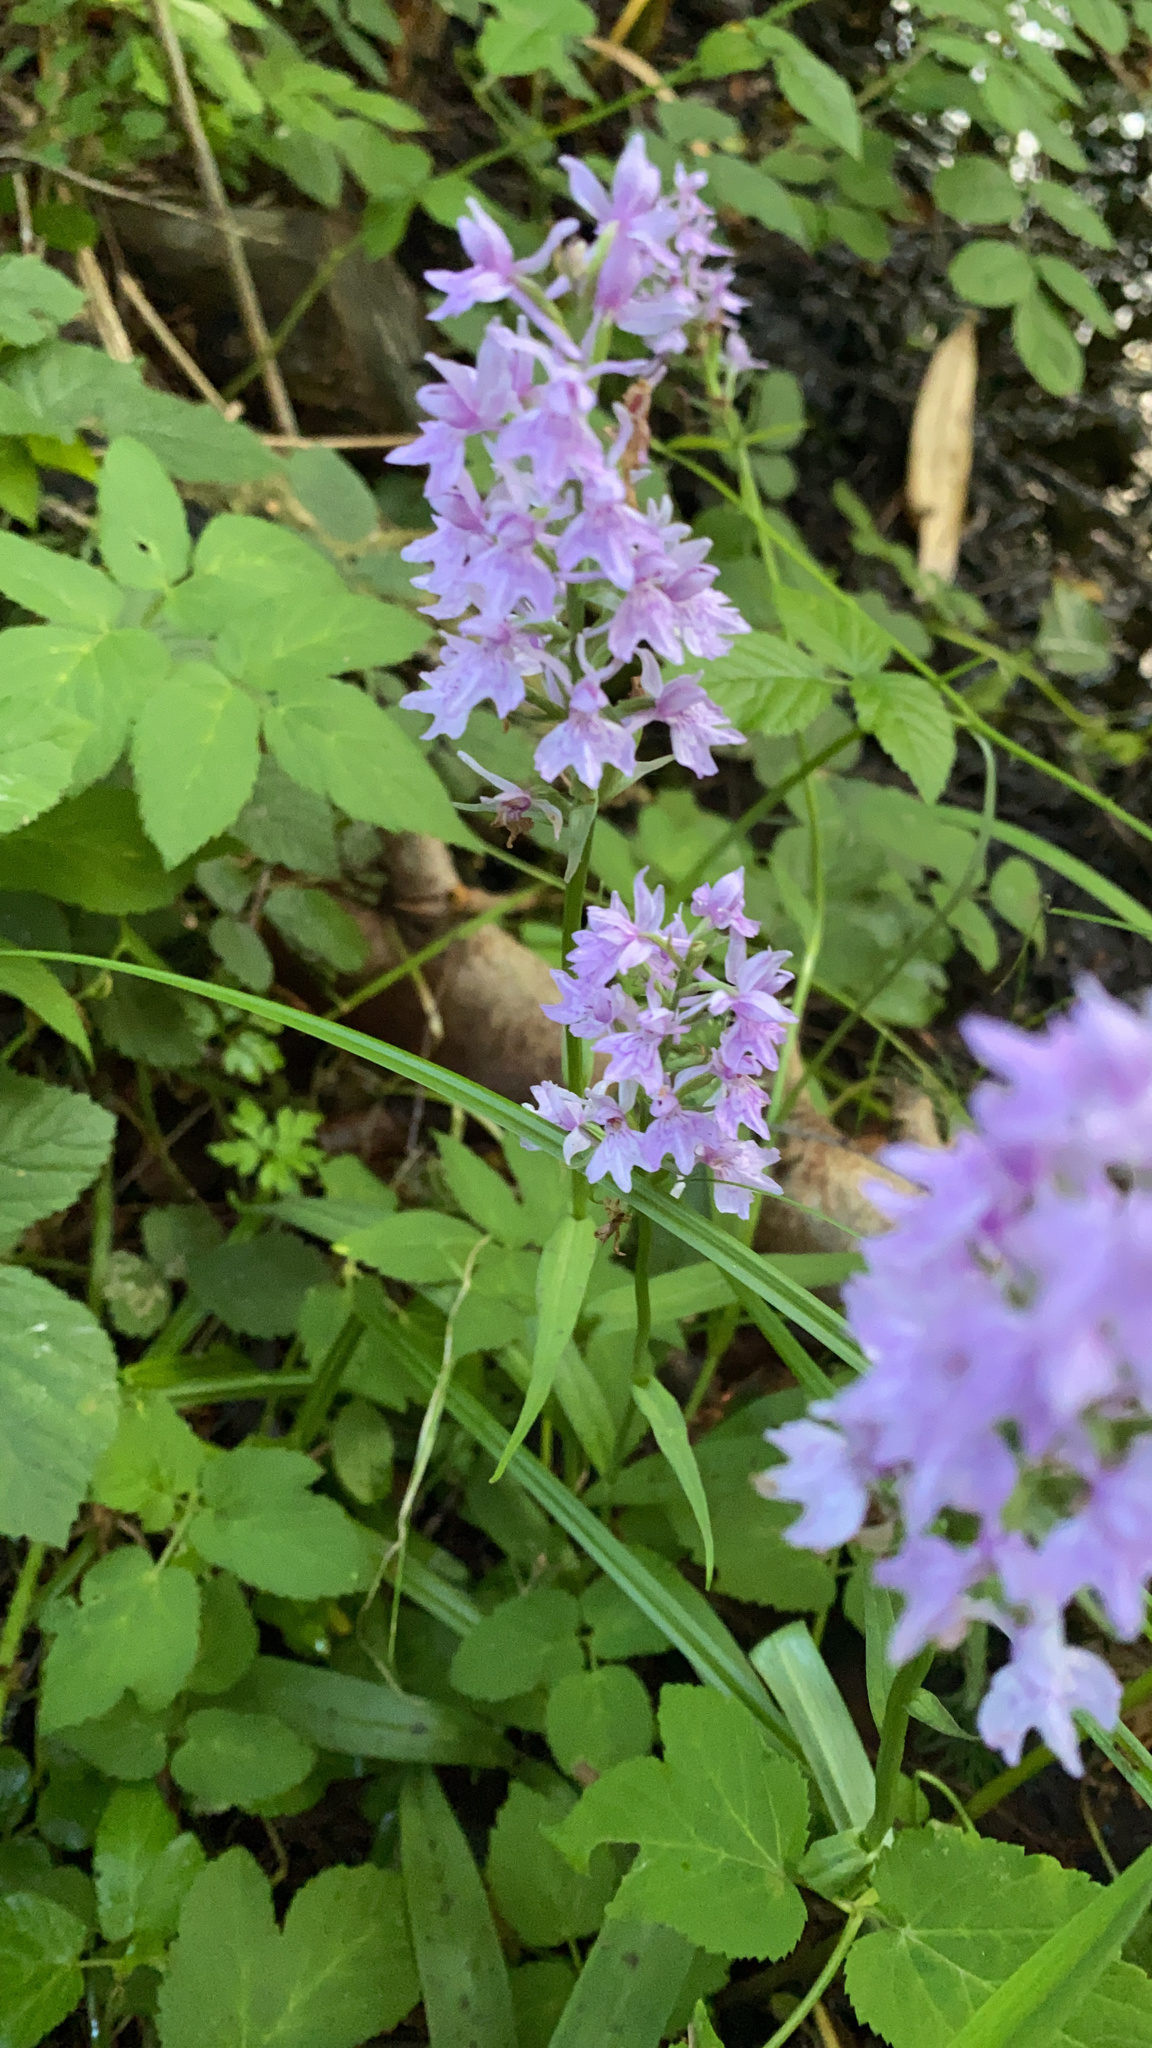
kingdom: Plantae
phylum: Tracheophyta
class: Liliopsida
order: Asparagales
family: Orchidaceae
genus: Dactylorhiza
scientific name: Dactylorhiza maculata
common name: Heath spotted-orchid
